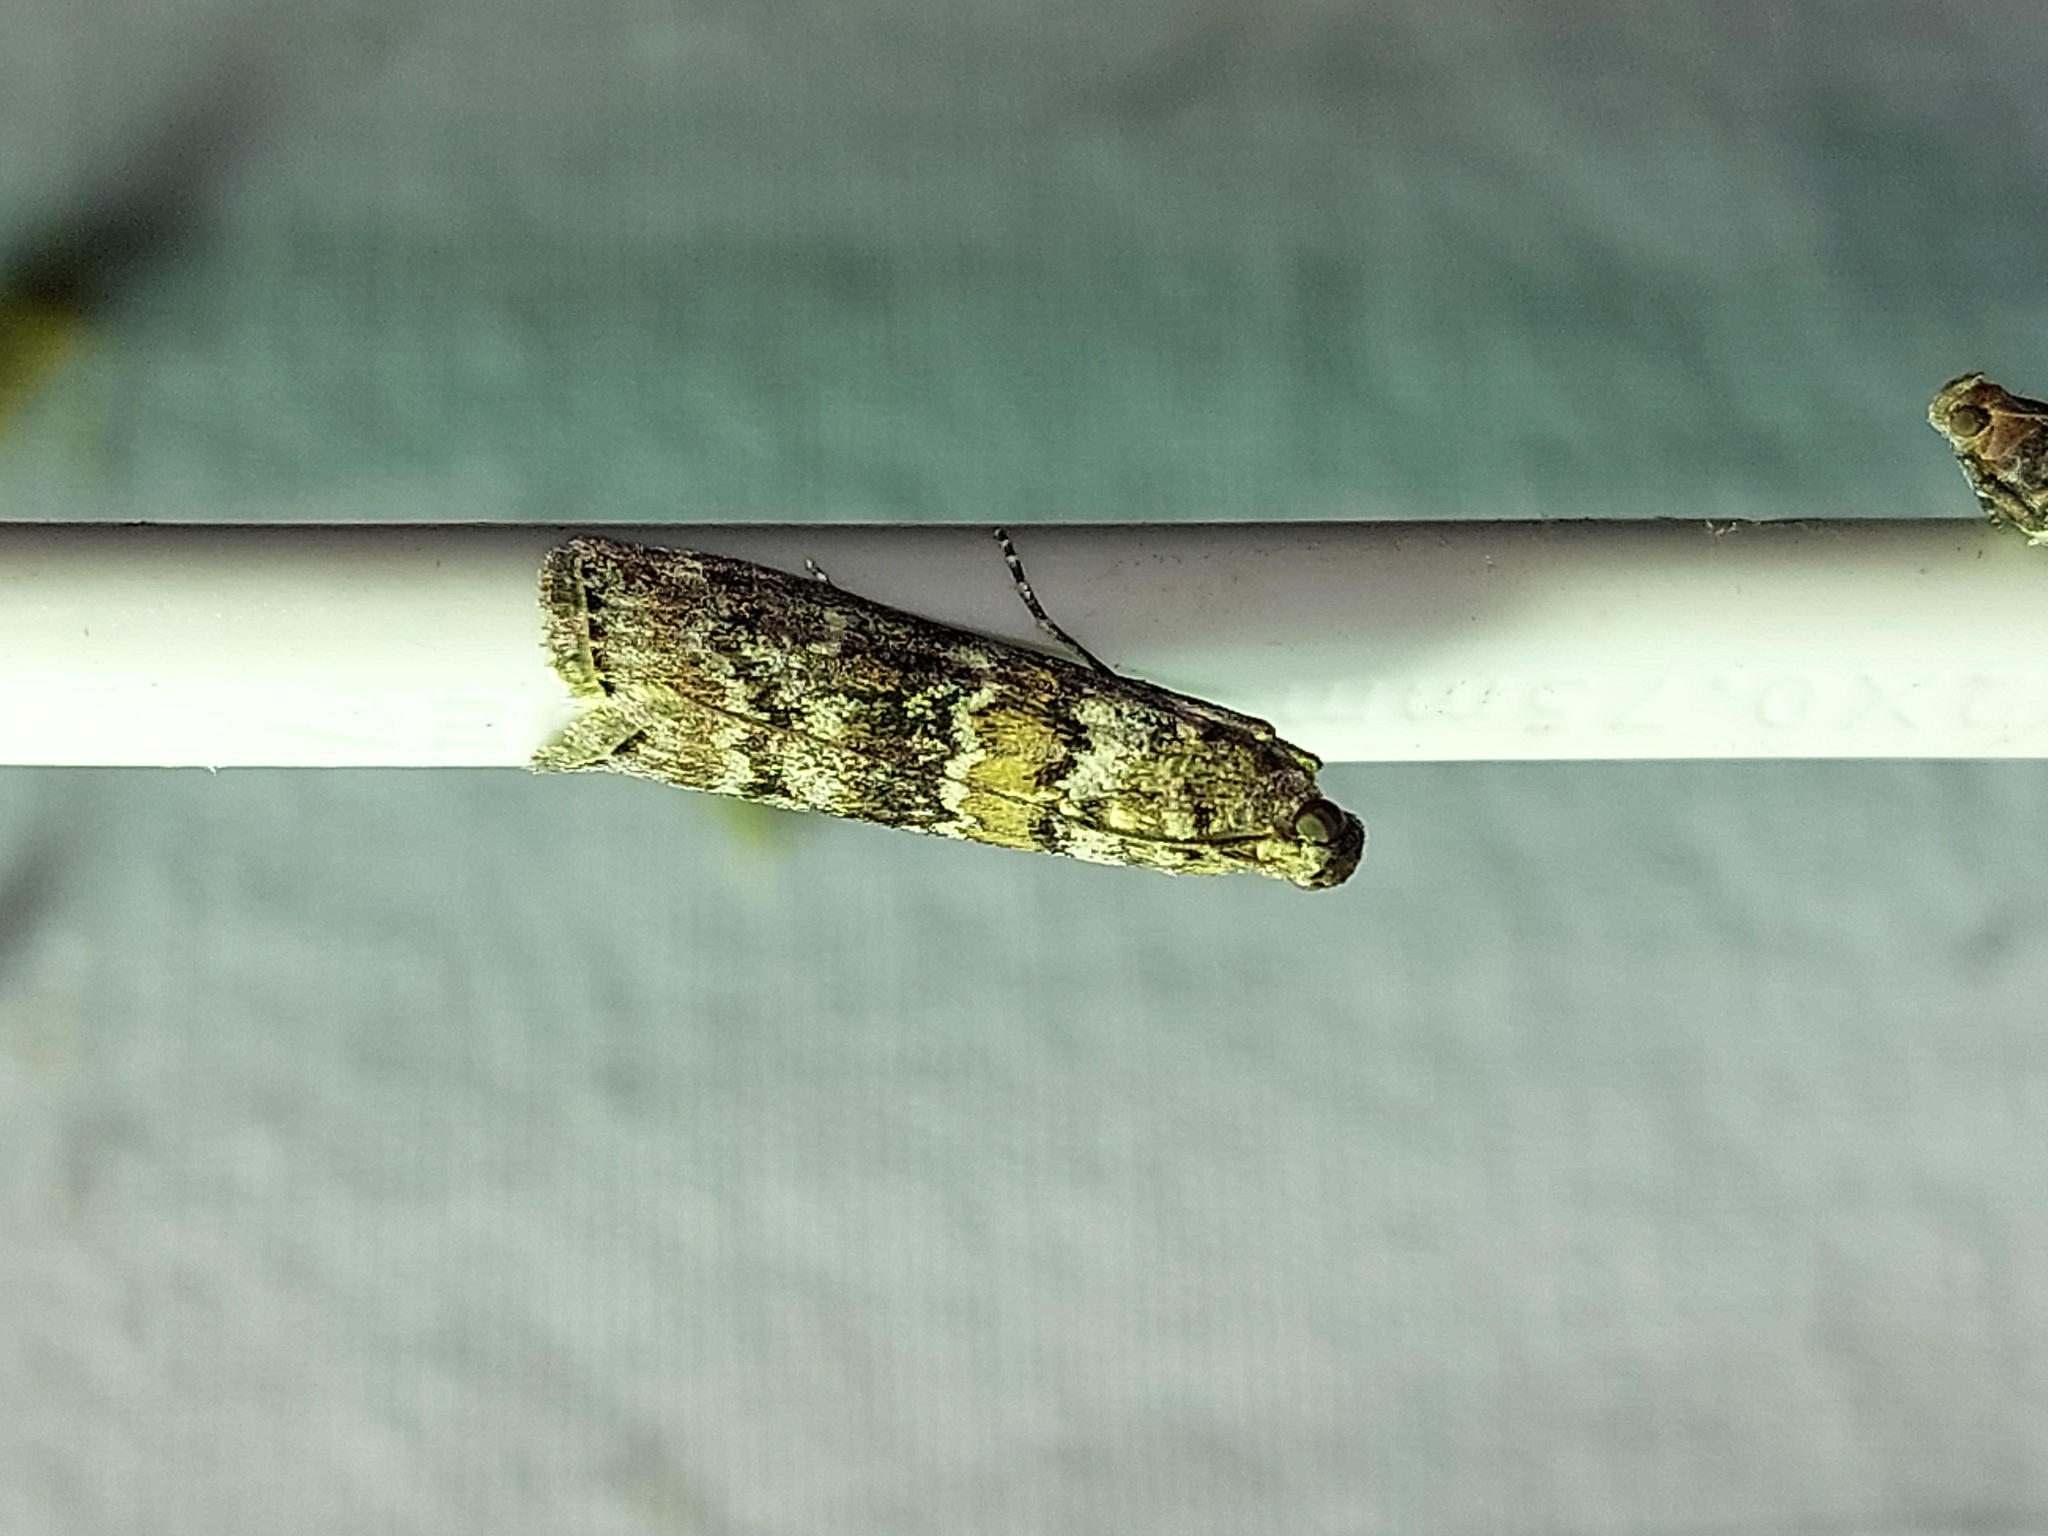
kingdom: Animalia
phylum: Arthropoda
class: Insecta
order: Lepidoptera
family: Pyralidae
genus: Dioryctria
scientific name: Dioryctria abietella
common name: Dark pine knot-horn
